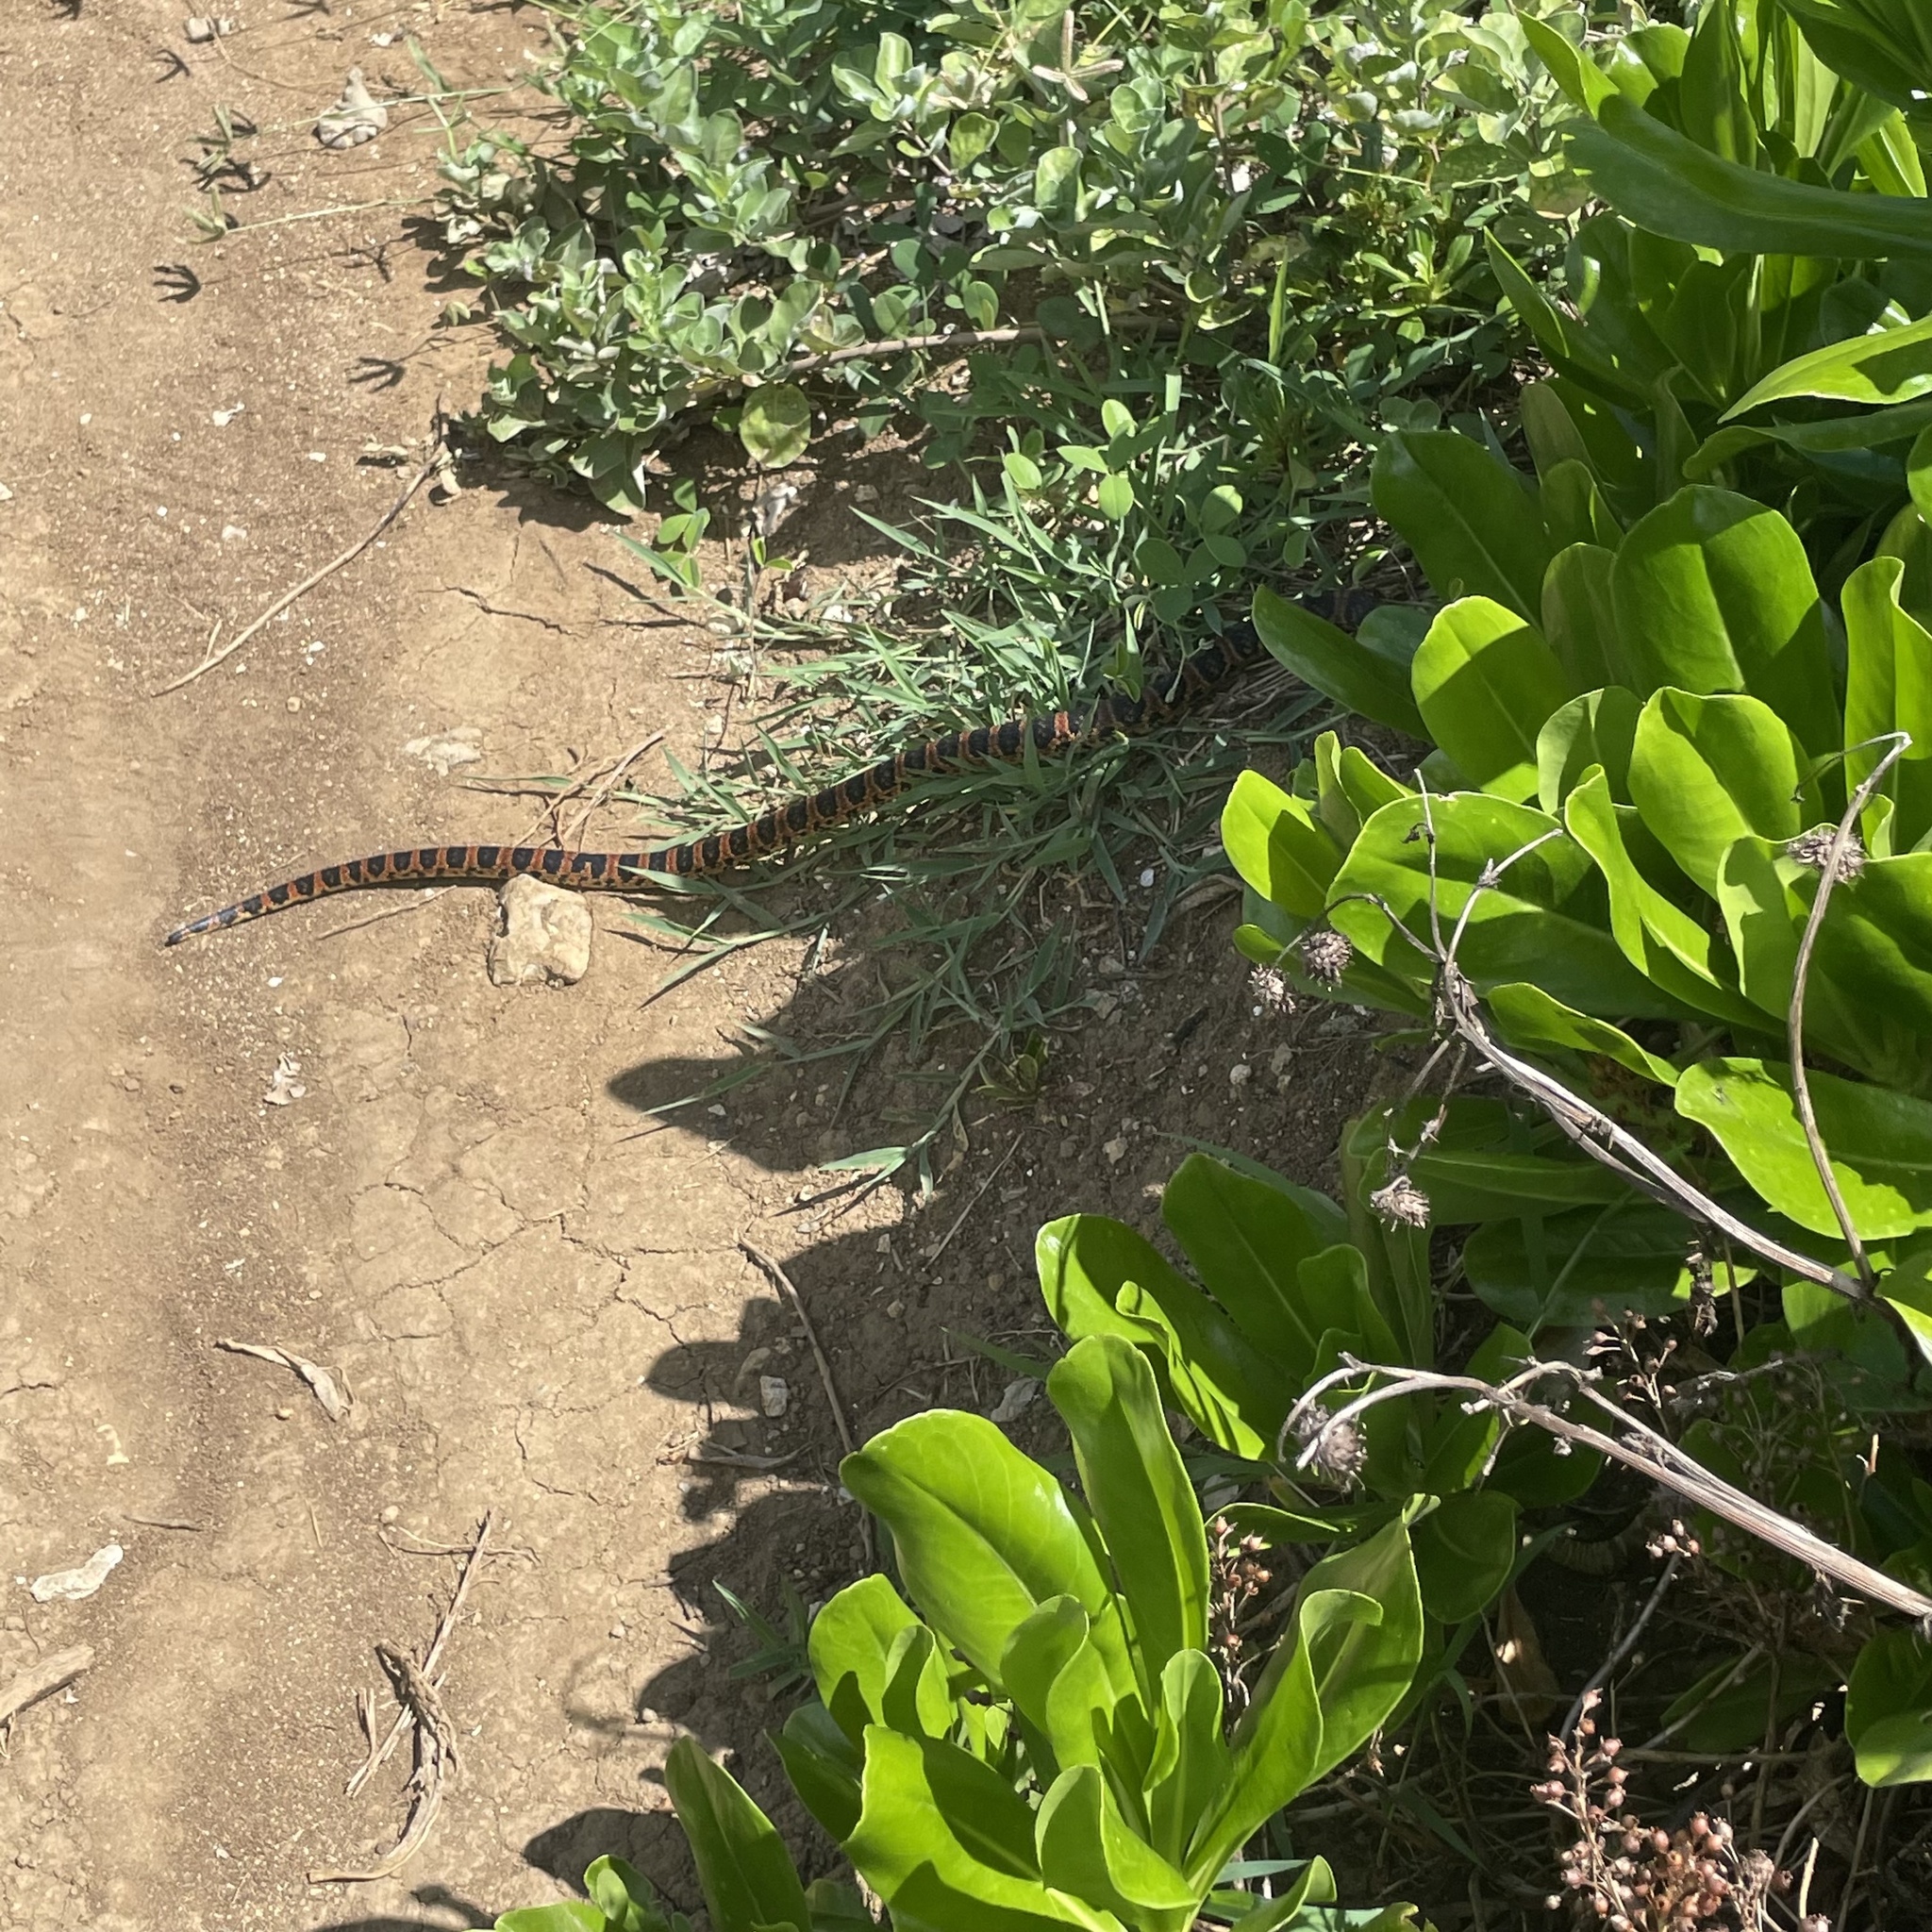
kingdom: Animalia
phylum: Chordata
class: Squamata
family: Colubridae
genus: Lycodon
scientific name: Lycodon semicarinatus
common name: Loo-choo big-tooth snake
